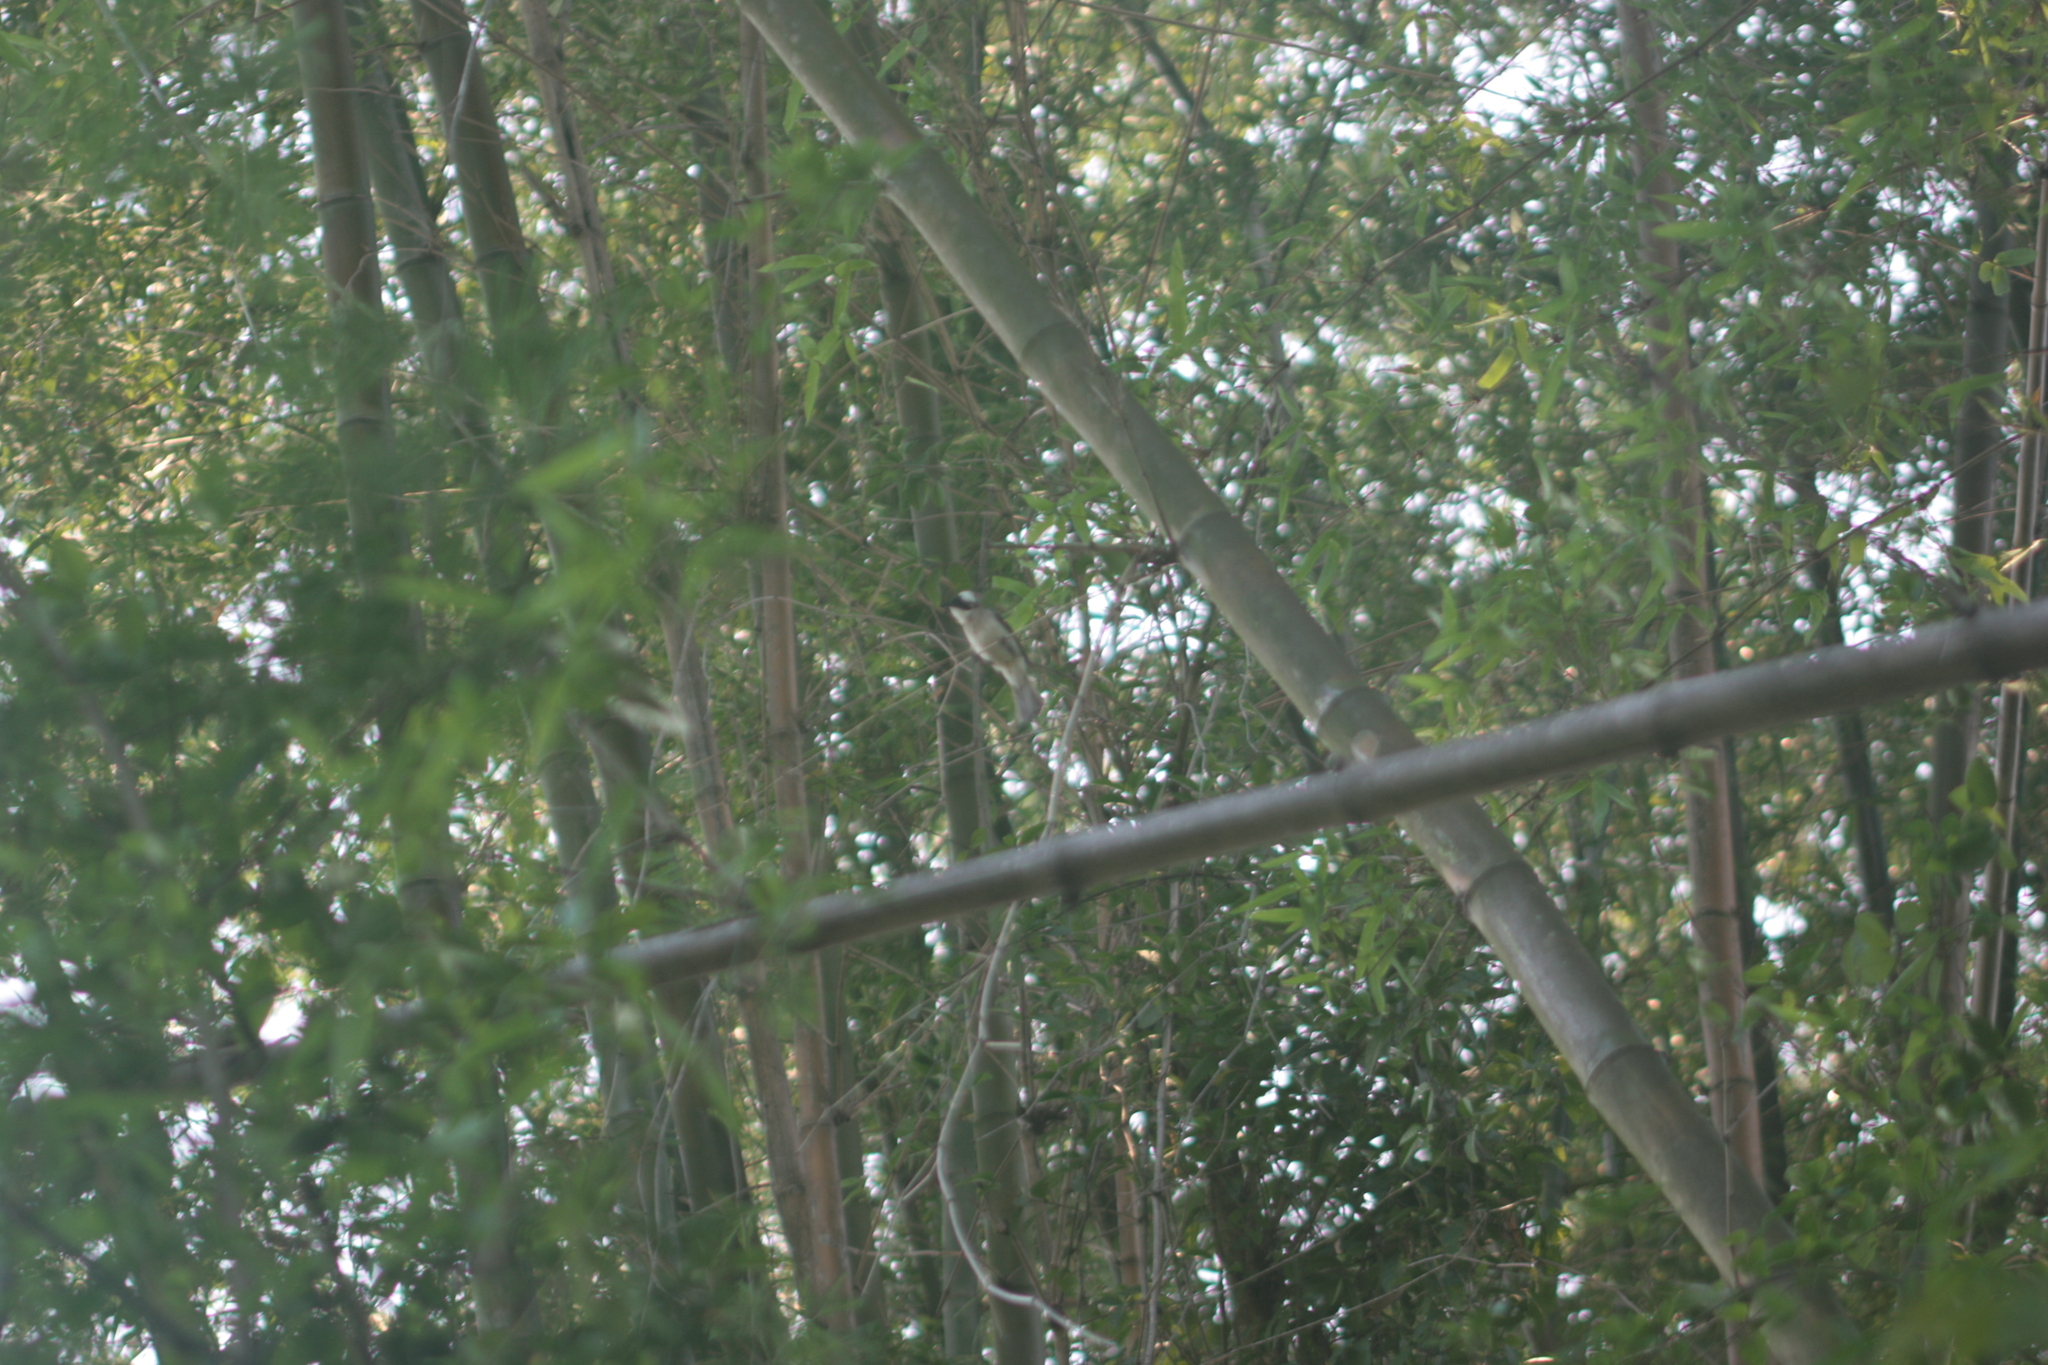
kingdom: Animalia
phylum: Chordata
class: Aves
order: Passeriformes
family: Pycnonotidae
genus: Pycnonotus
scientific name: Pycnonotus sinensis
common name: Light-vented bulbul
